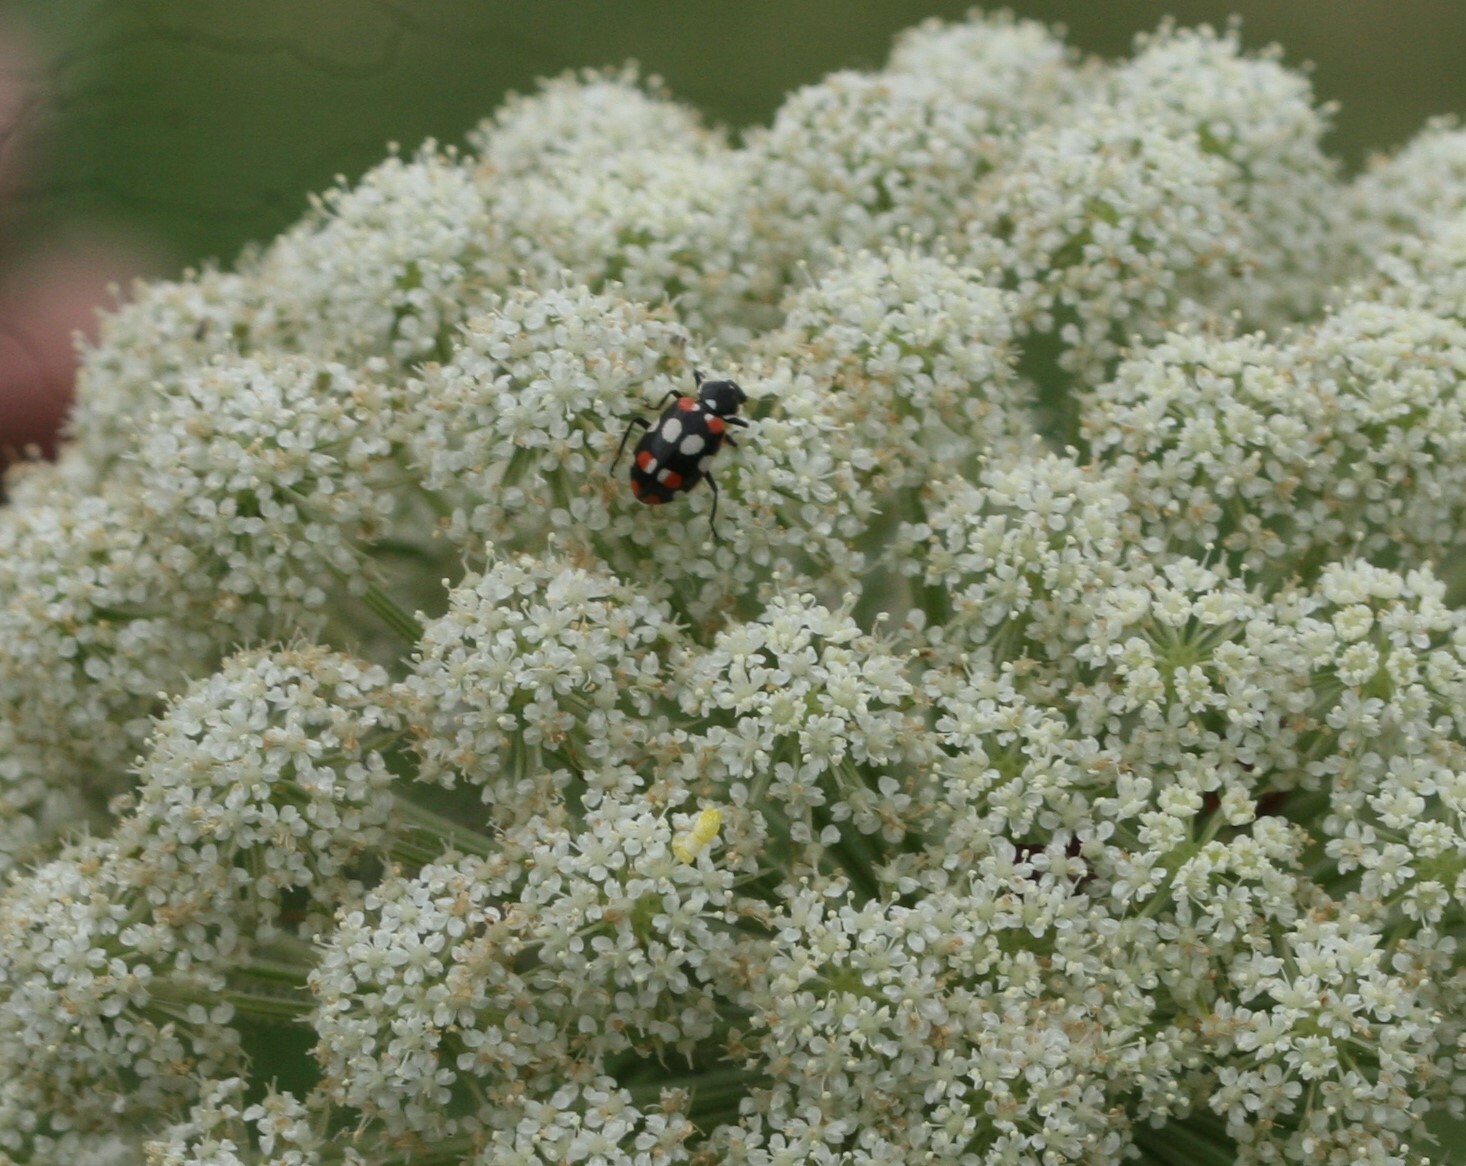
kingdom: Animalia
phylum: Arthropoda
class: Insecta
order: Coleoptera
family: Coccinellidae
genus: Eriopis
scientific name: Eriopis connexa
